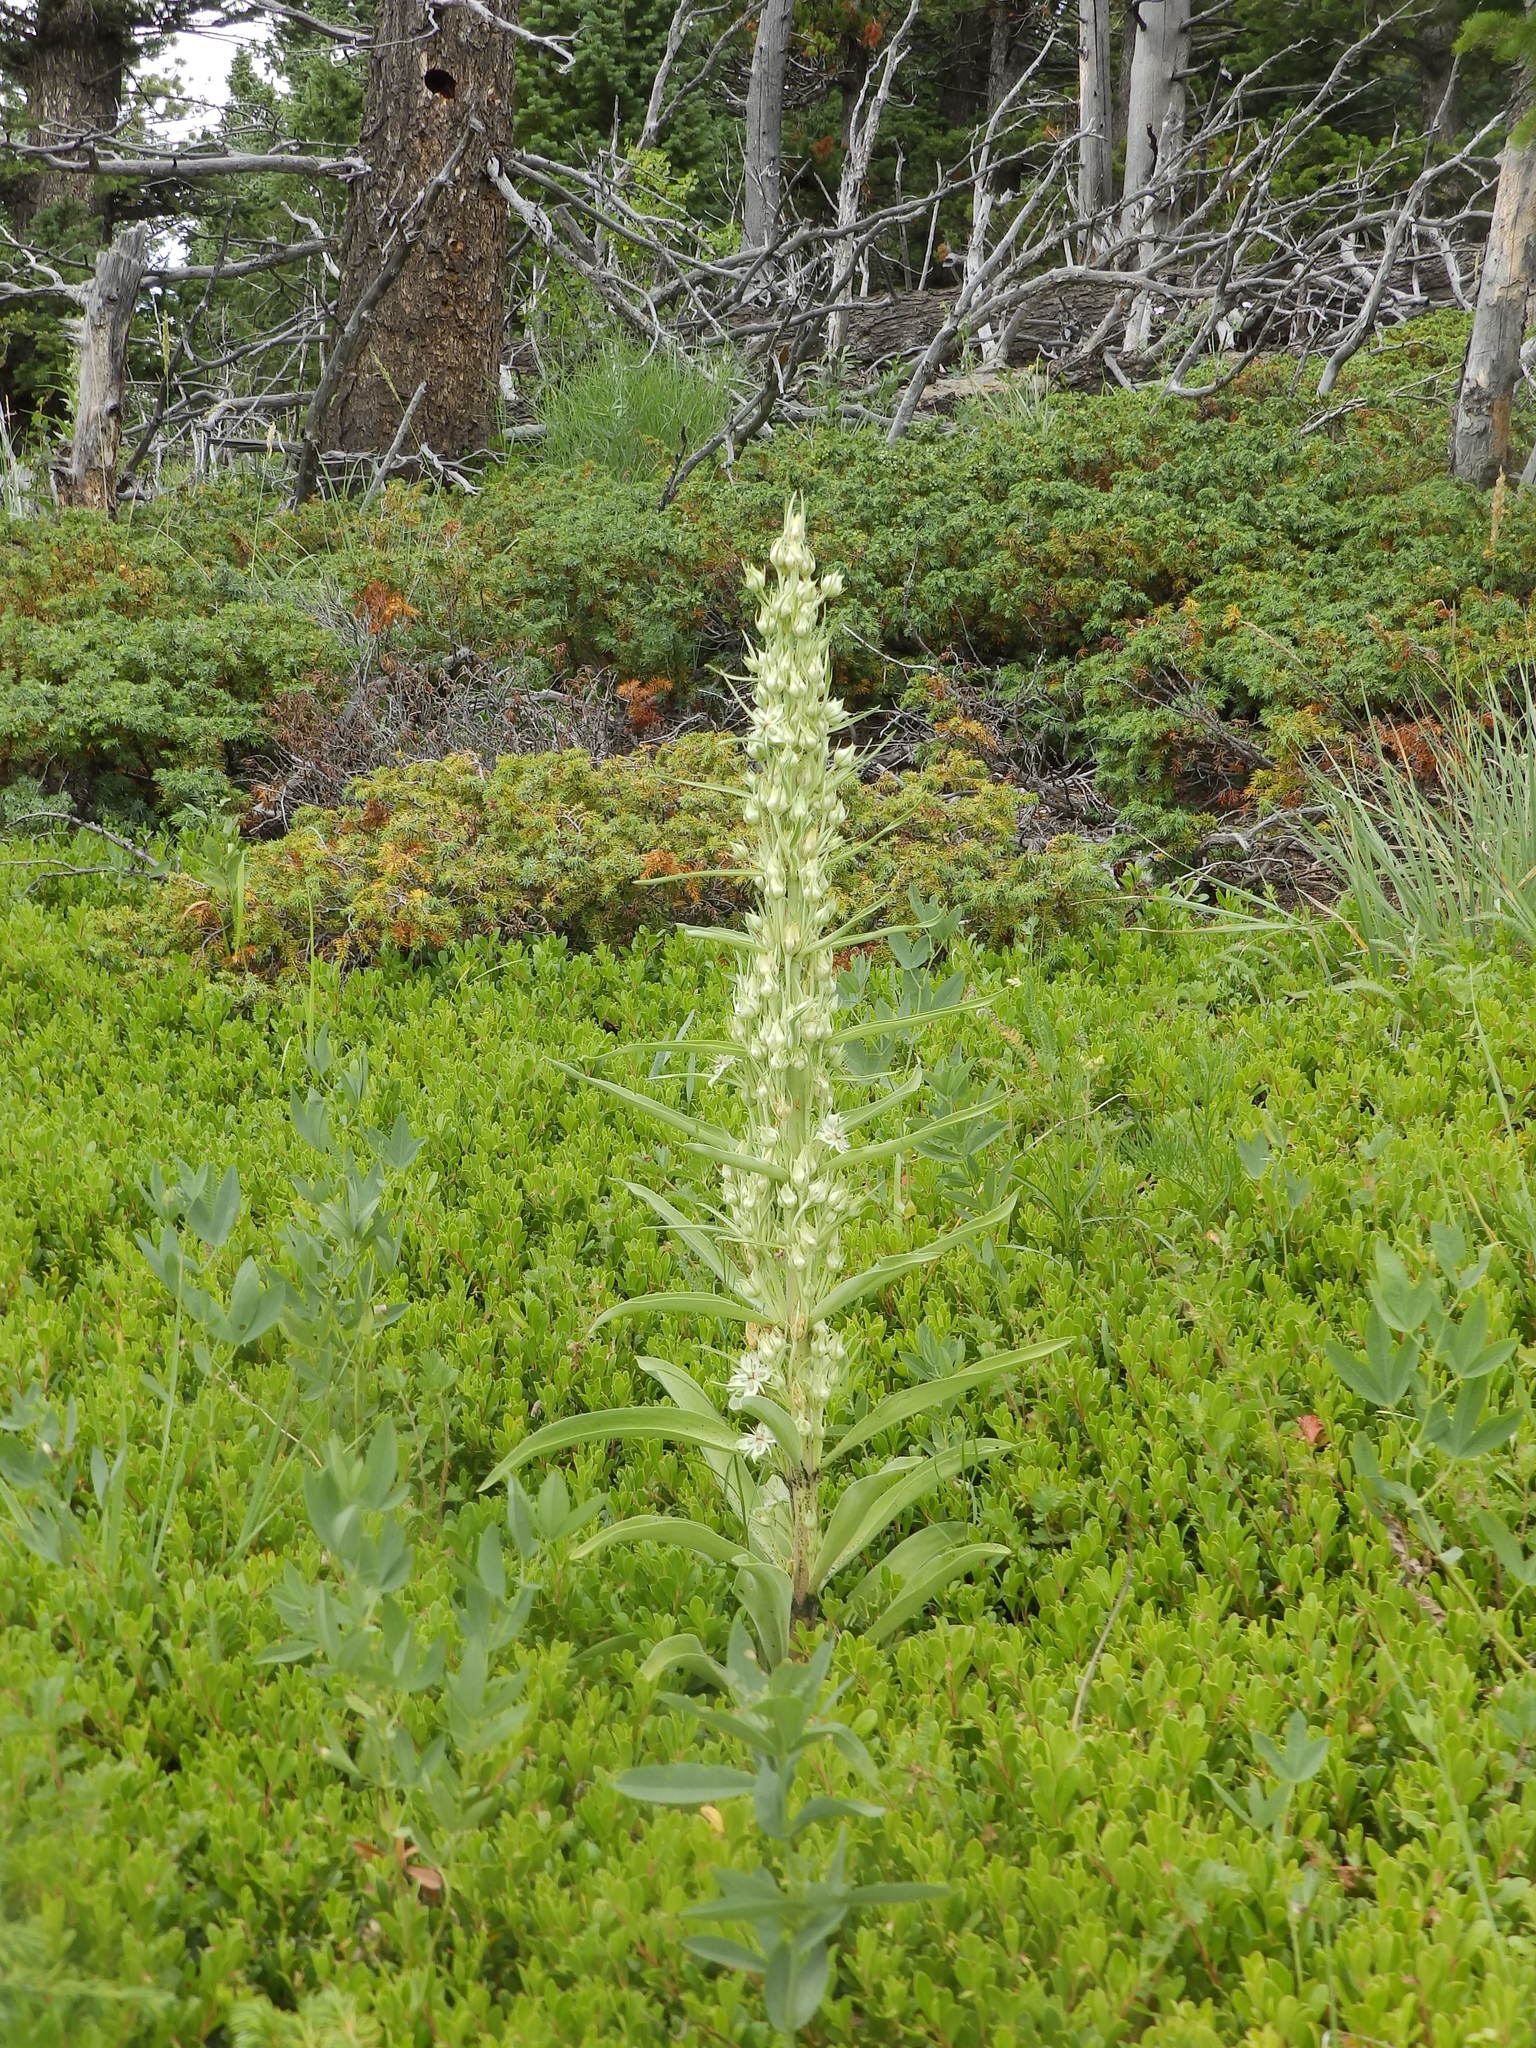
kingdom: Plantae
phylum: Tracheophyta
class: Magnoliopsida
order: Gentianales
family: Gentianaceae
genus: Frasera
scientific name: Frasera speciosa
